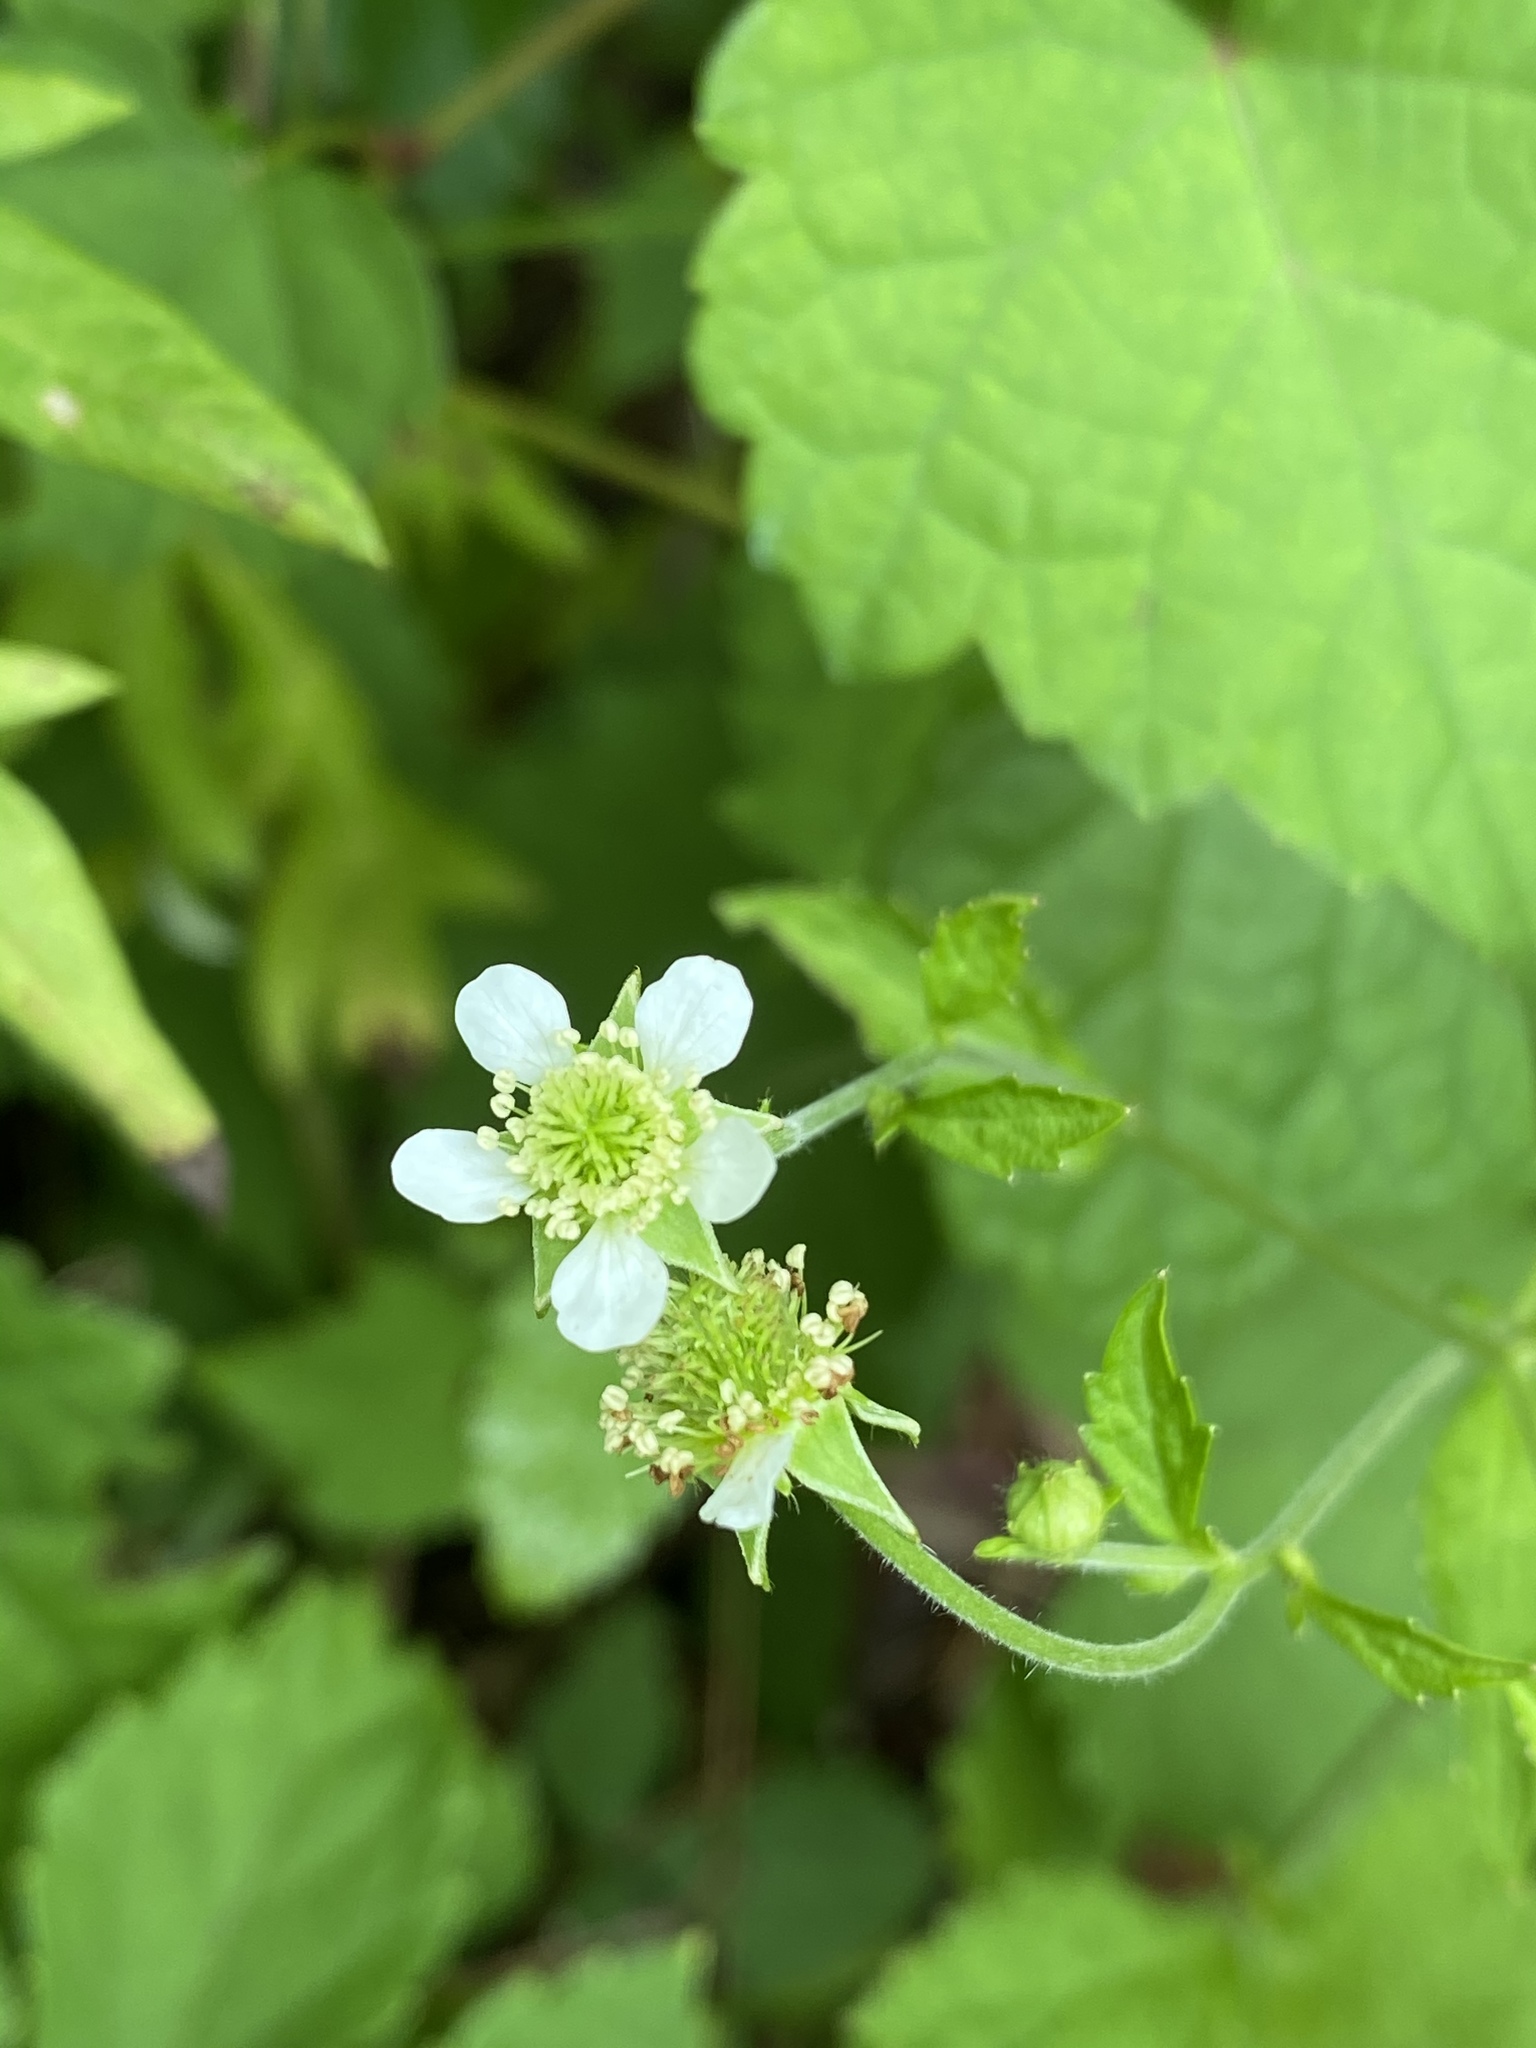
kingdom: Plantae
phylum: Tracheophyta
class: Magnoliopsida
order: Rosales
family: Rosaceae
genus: Geum
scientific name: Geum canadense
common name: White avens
